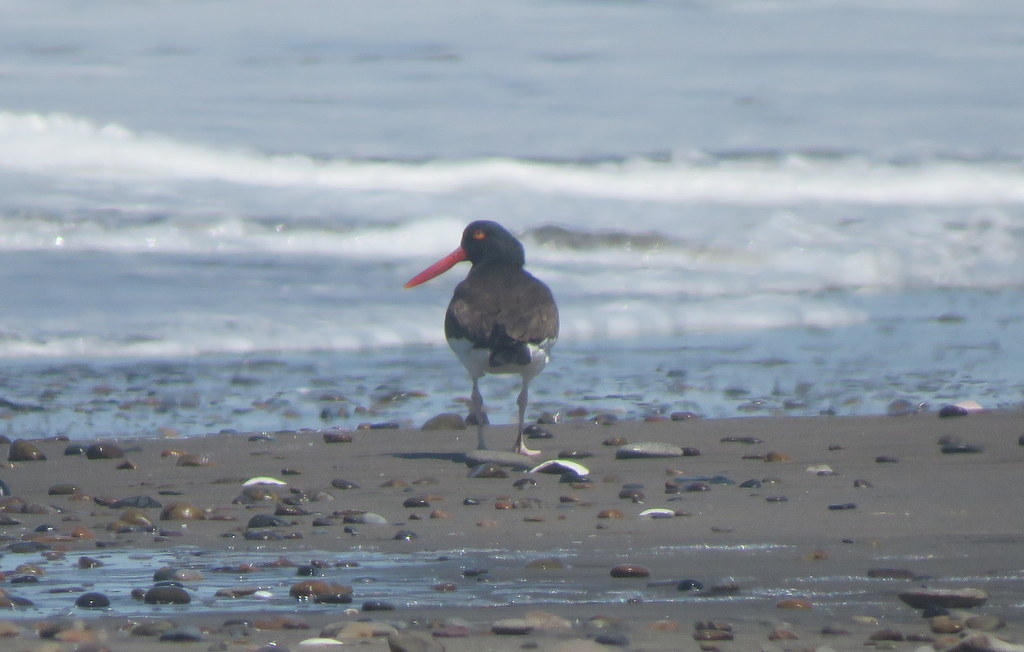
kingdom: Animalia
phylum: Chordata
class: Aves
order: Charadriiformes
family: Haematopodidae
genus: Haematopus
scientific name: Haematopus palliatus
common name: American oystercatcher
